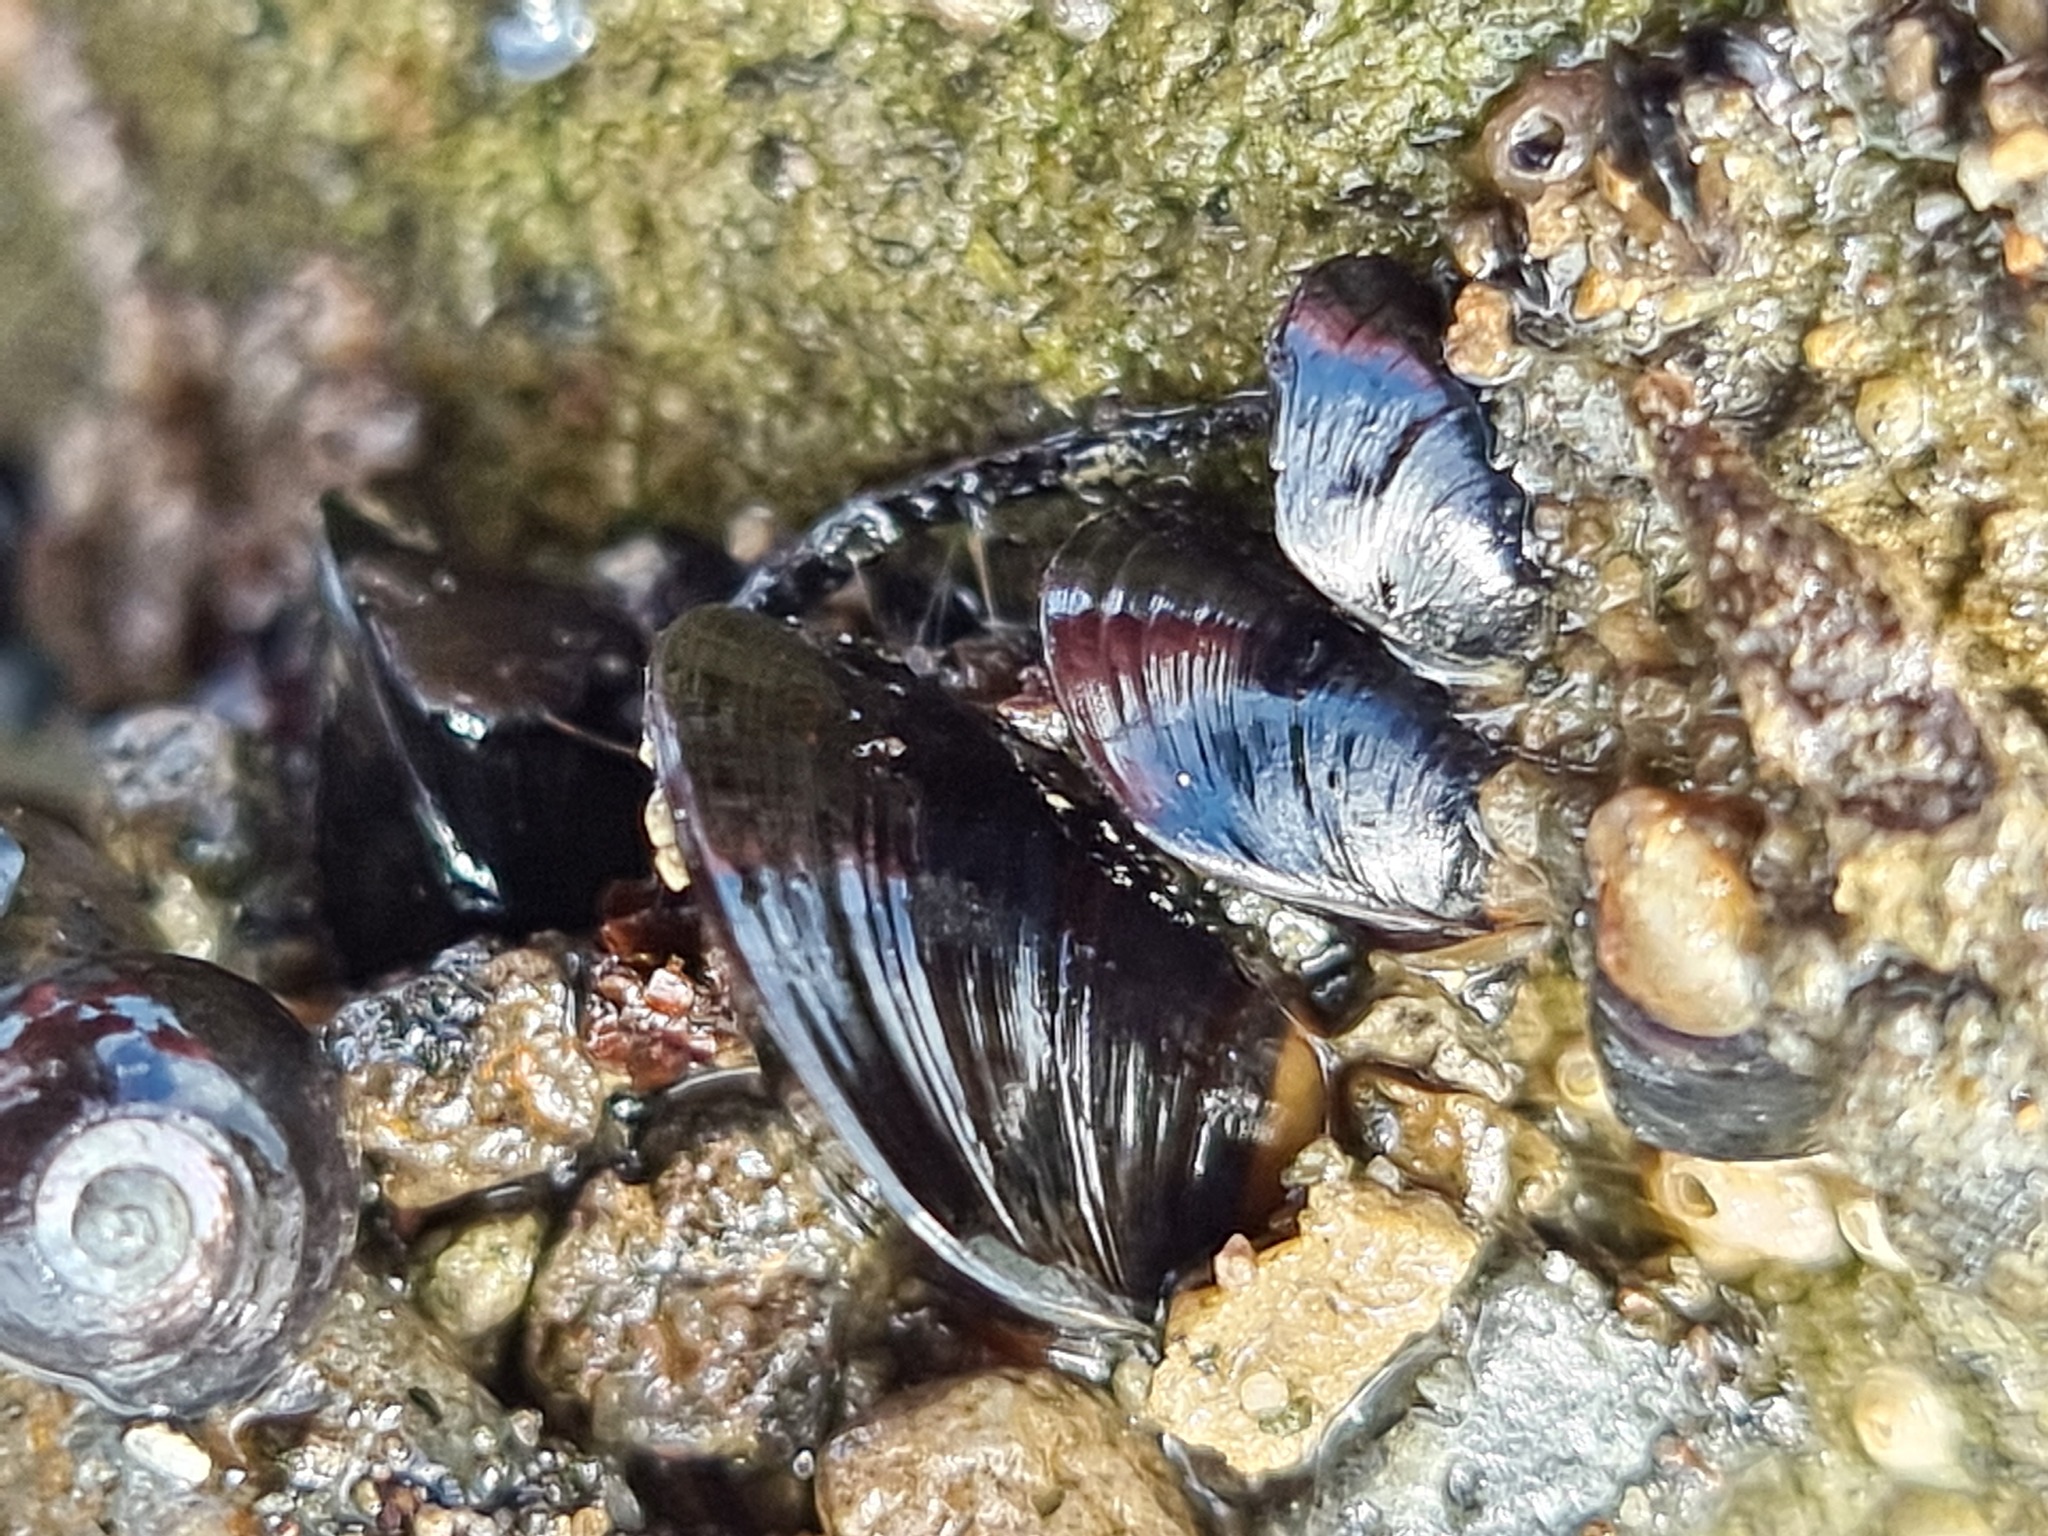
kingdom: Animalia
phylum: Mollusca
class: Bivalvia
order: Mytilida
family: Mytilidae
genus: Xenostrobus
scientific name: Xenostrobus neozelanicus
